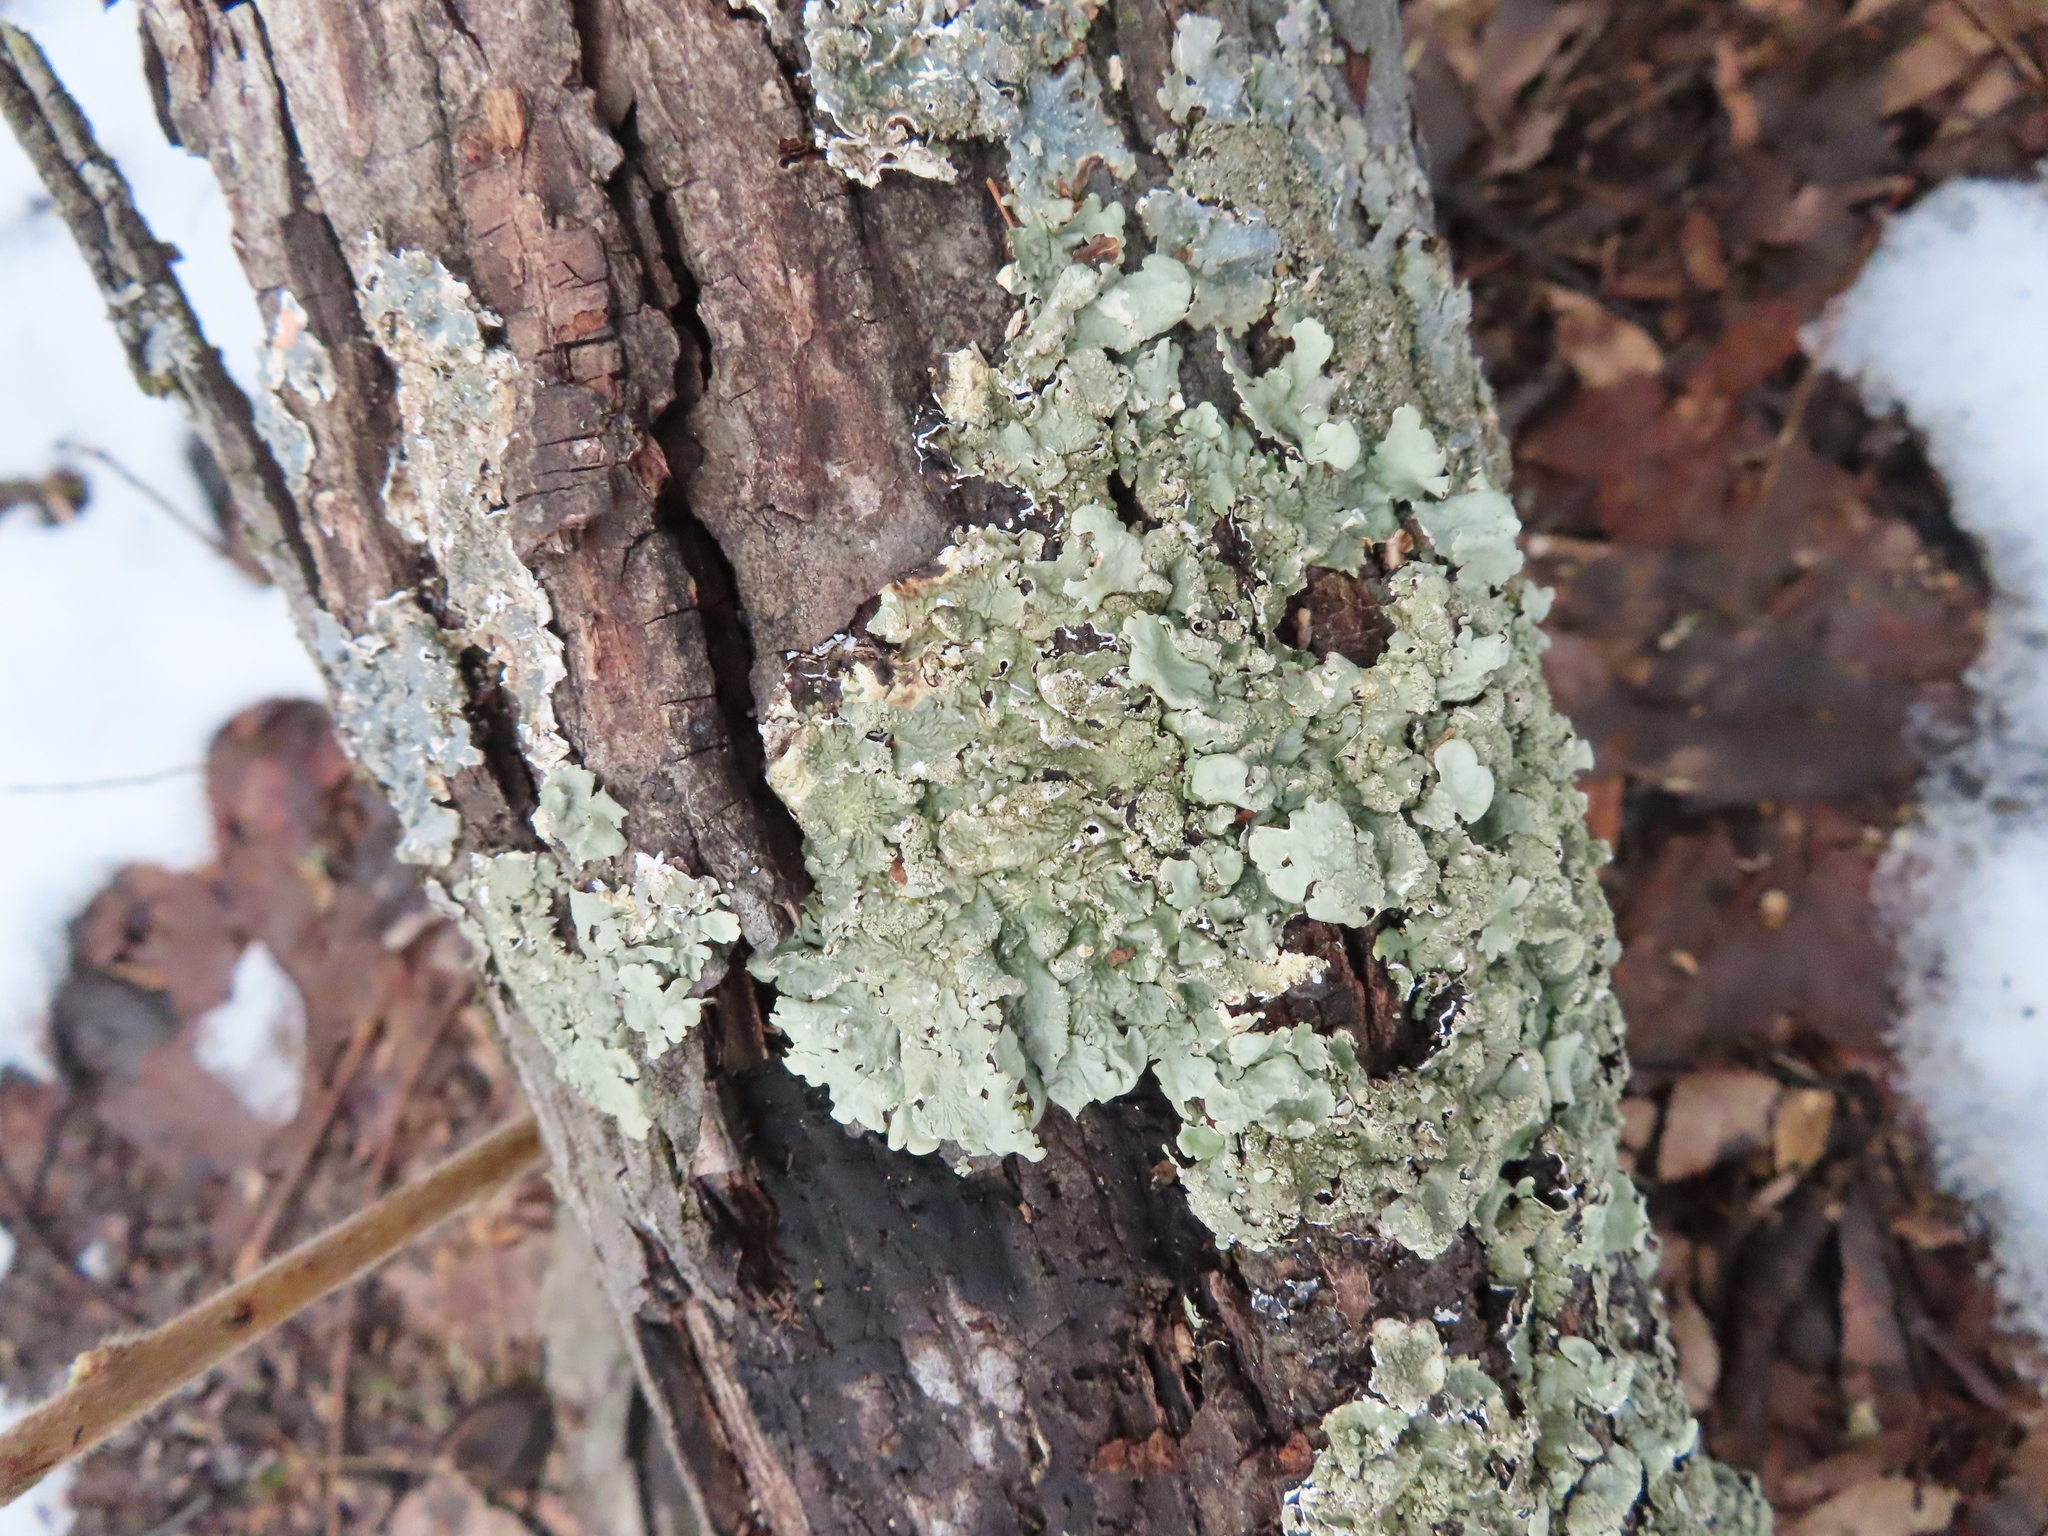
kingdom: Fungi
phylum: Ascomycota
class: Lecanoromycetes
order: Lecanorales
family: Parmeliaceae
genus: Flavoparmelia
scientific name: Flavoparmelia caperata
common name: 40-mile per hour lichen
